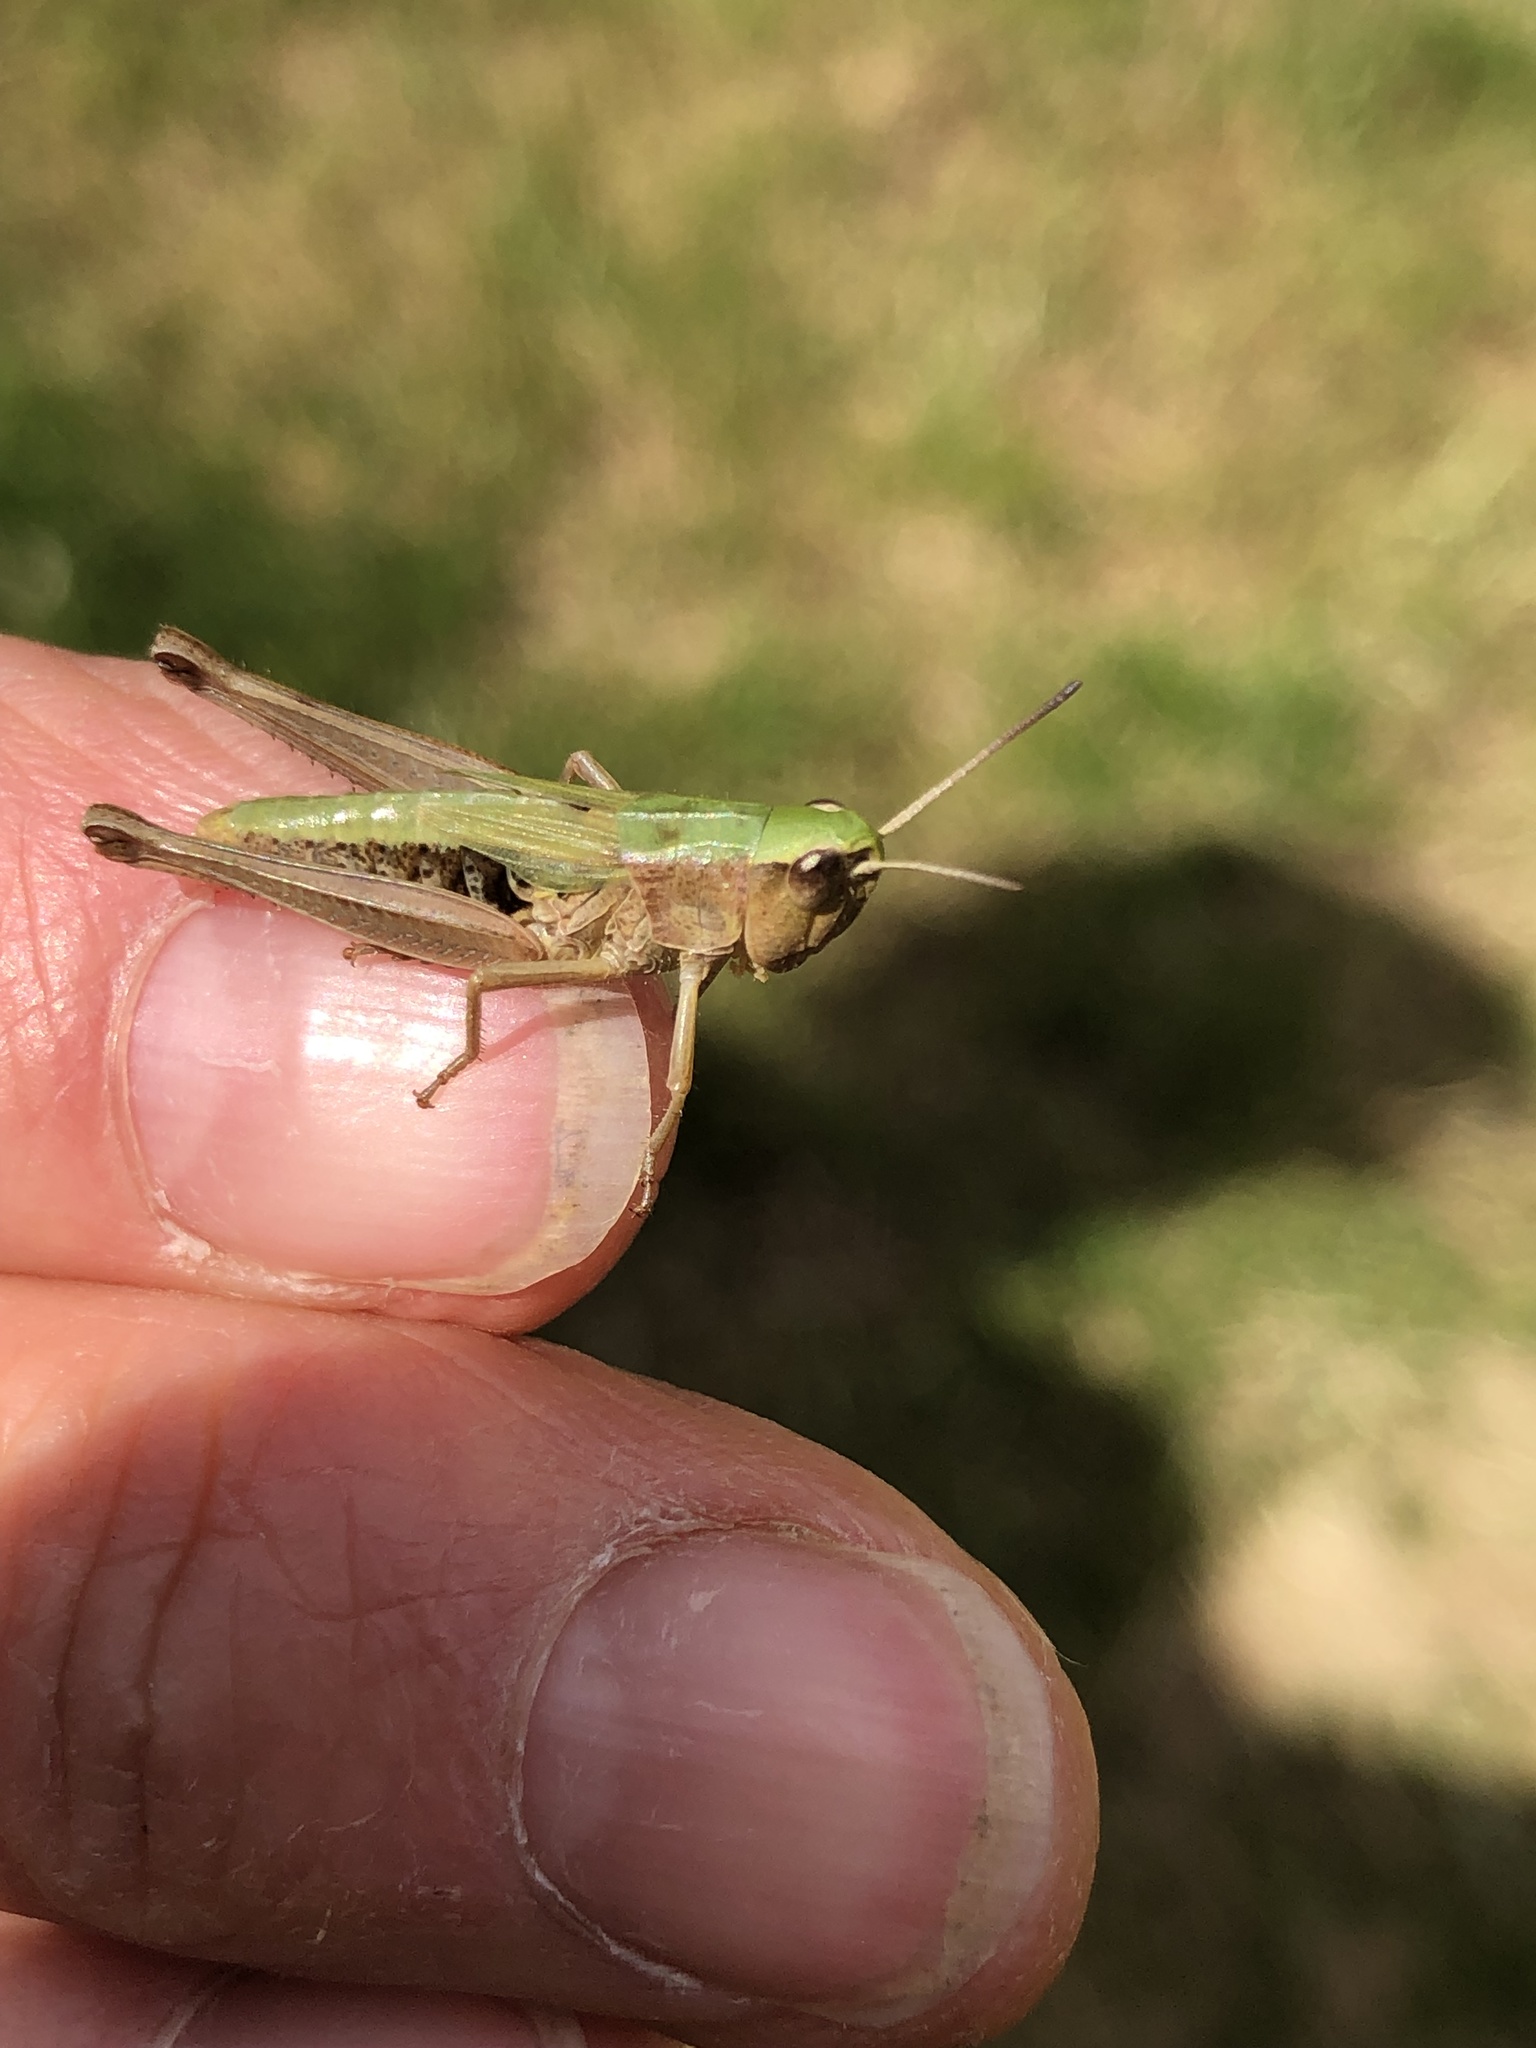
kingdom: Animalia
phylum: Arthropoda
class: Insecta
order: Orthoptera
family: Acrididae
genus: Pseudochorthippus
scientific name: Pseudochorthippus parallelus
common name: Meadow grasshopper
